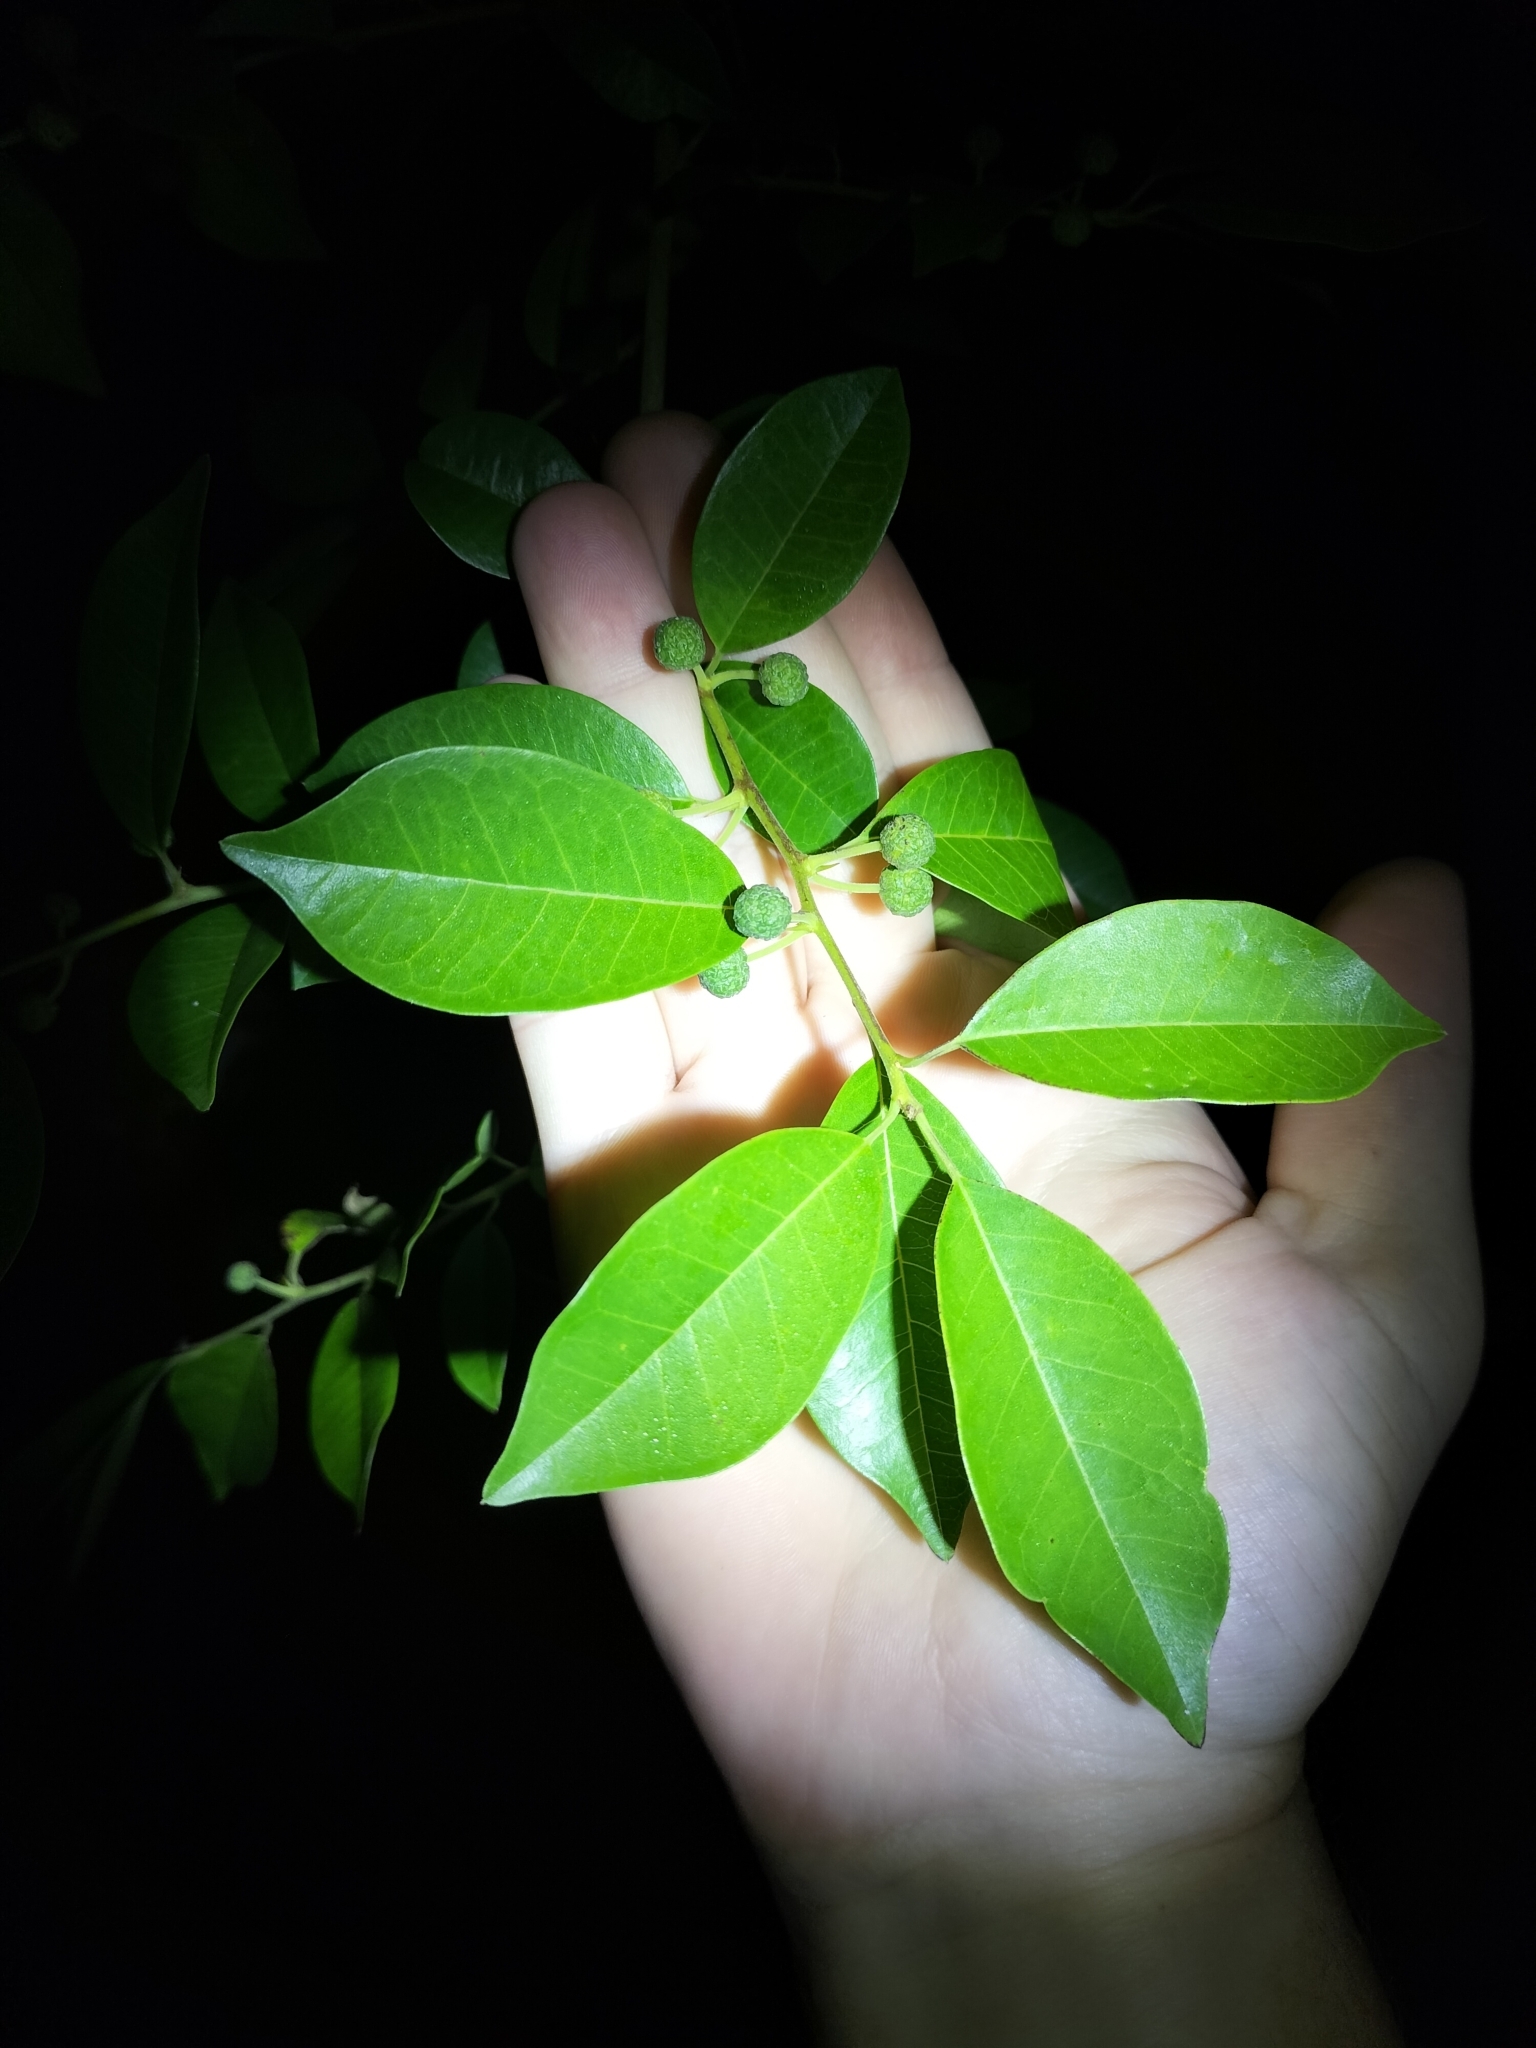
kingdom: Plantae
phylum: Tracheophyta
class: Magnoliopsida
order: Rosales
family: Moraceae
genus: Maclura
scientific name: Maclura cochinchinensis
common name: Cockspurthorn
